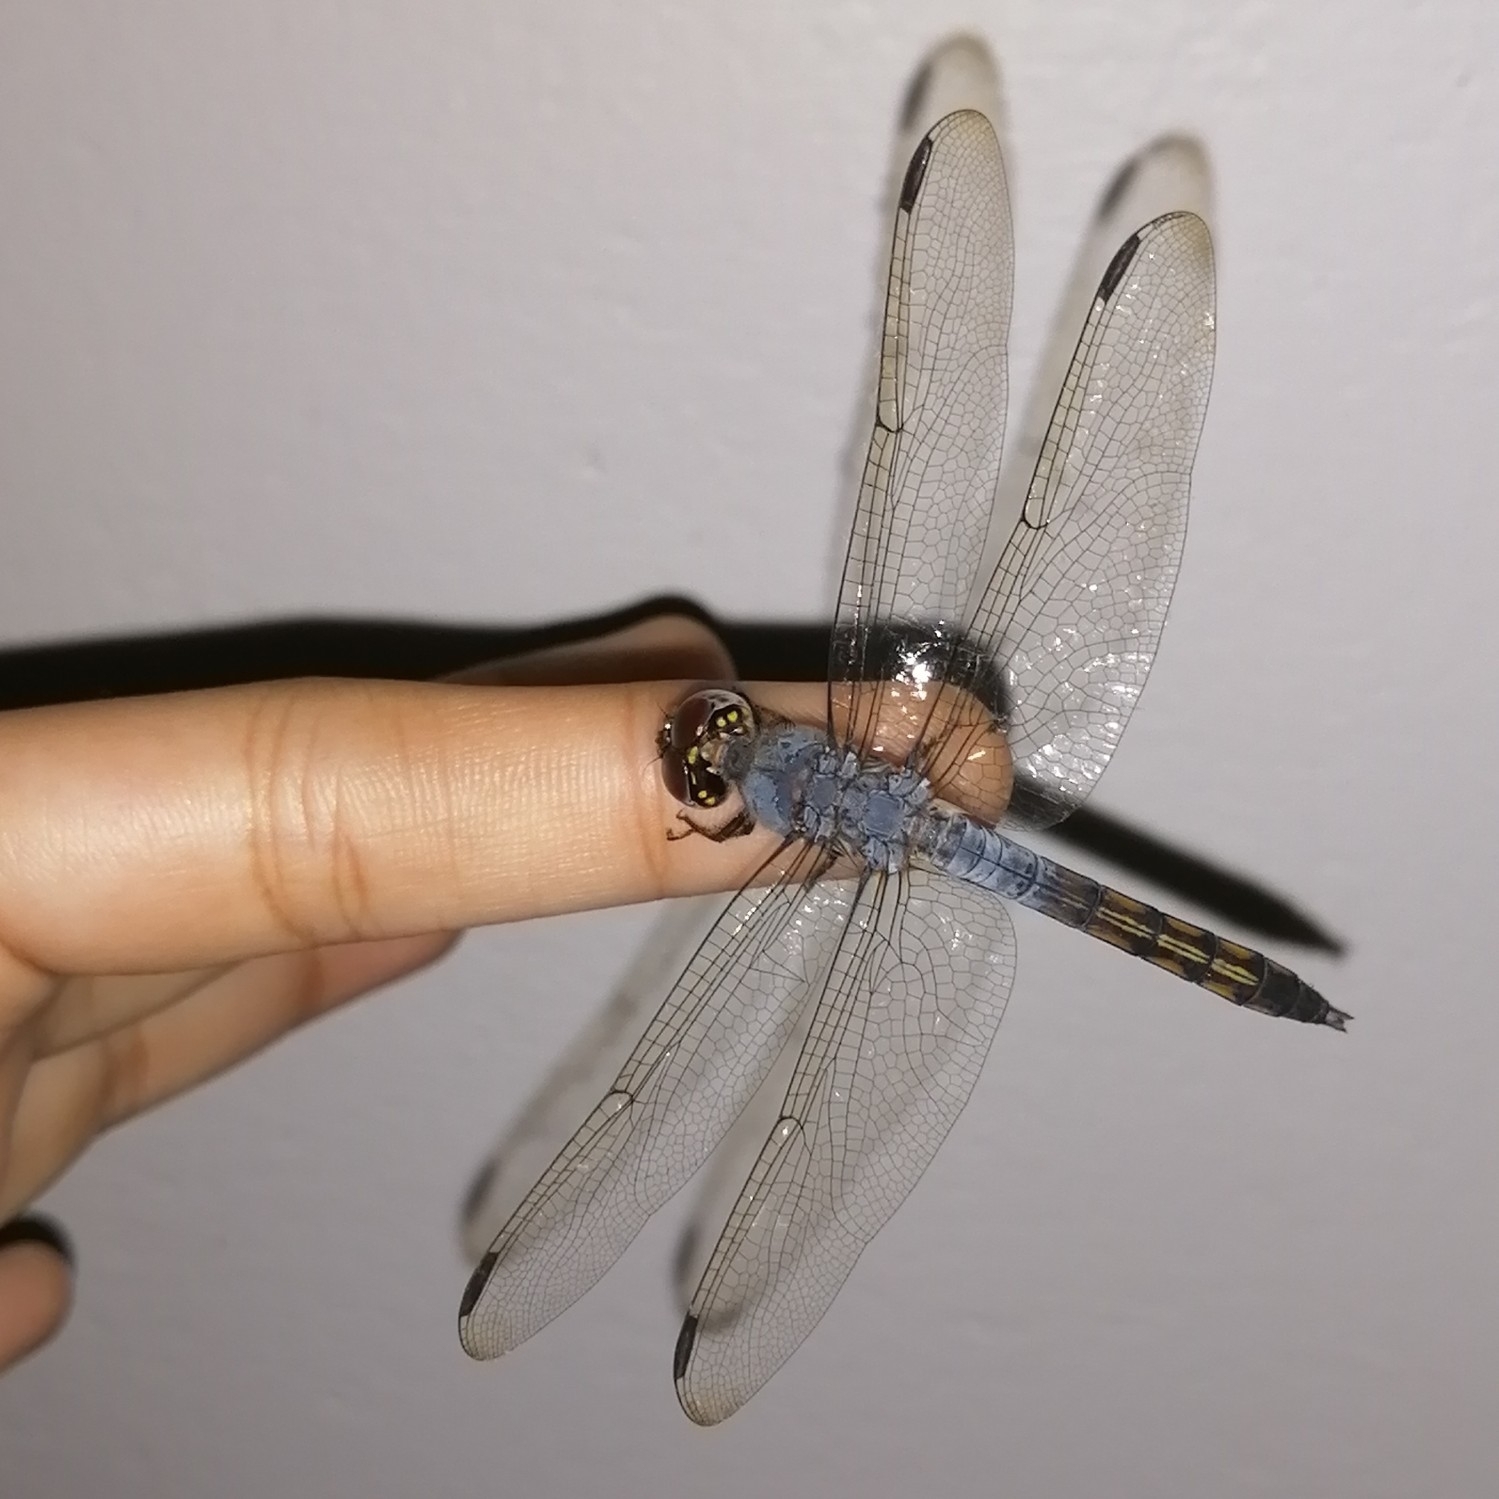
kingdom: Animalia
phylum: Arthropoda
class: Insecta
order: Odonata
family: Libellulidae
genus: Potamarcha
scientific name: Potamarcha congener
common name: Blue chaser
